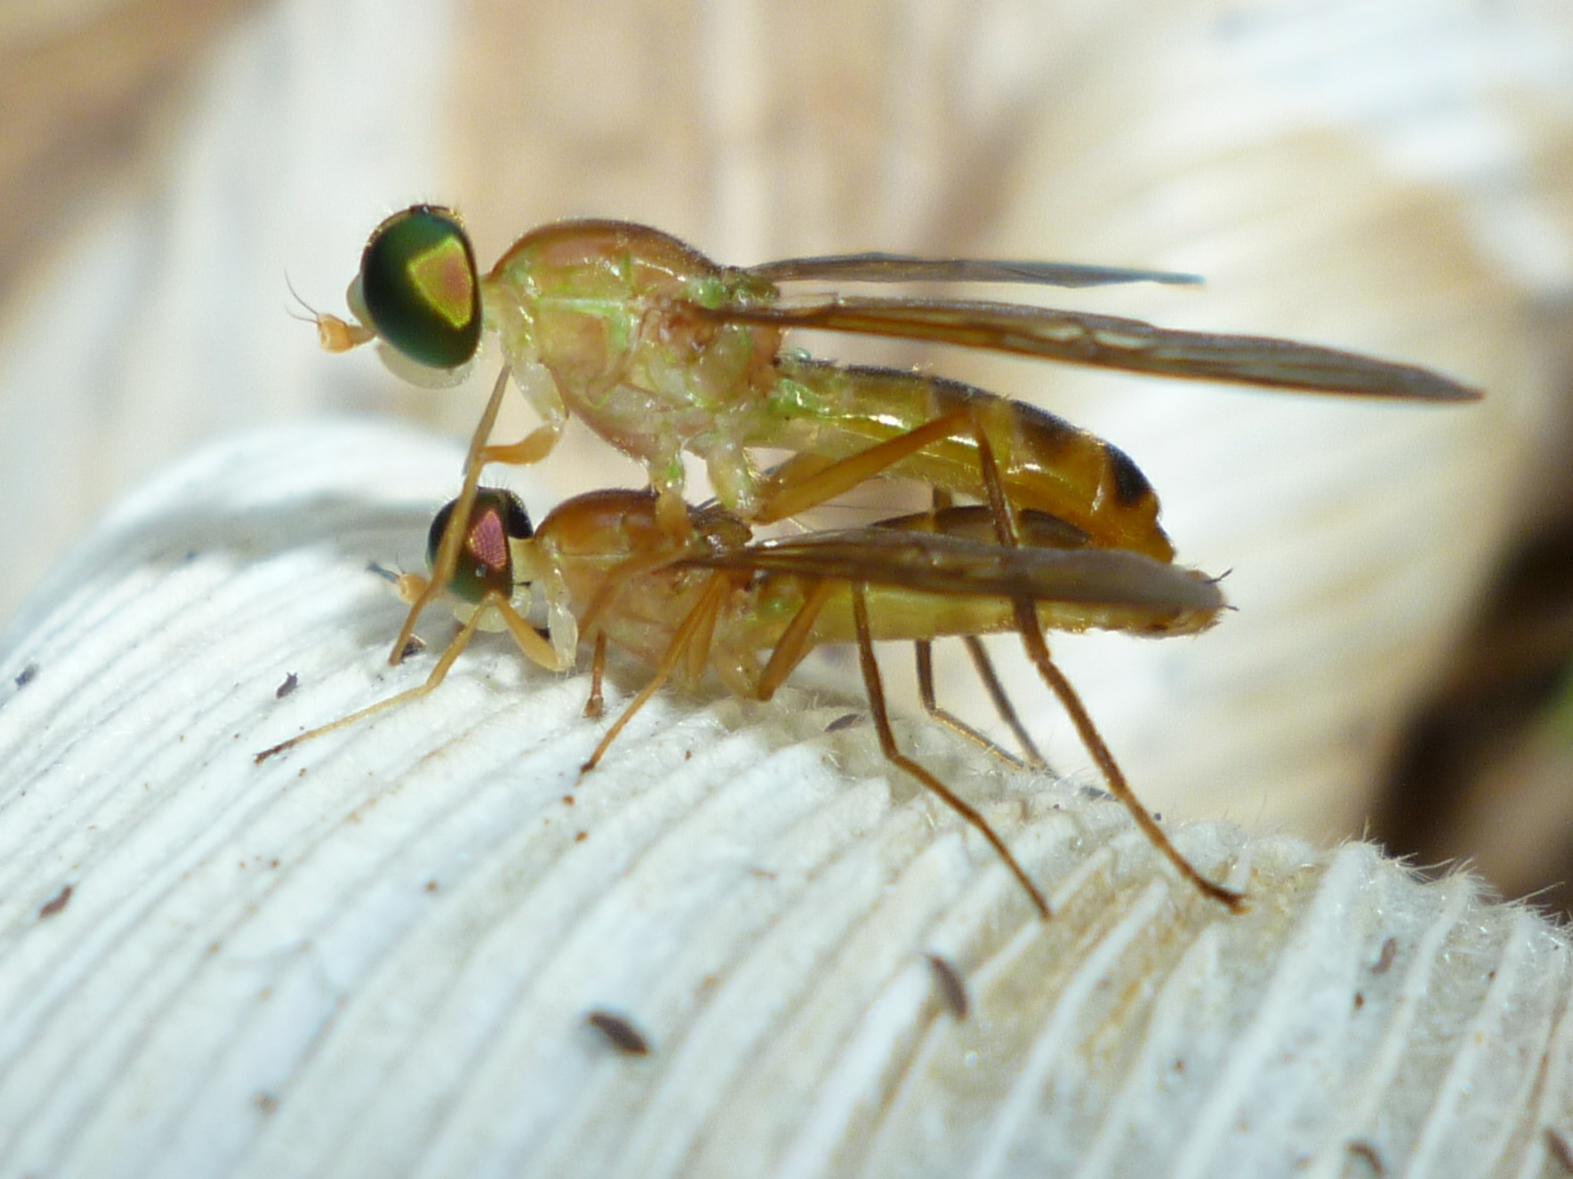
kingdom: Animalia
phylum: Arthropoda
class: Insecta
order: Diptera
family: Stratiomyidae
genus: Ptecticus
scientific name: Ptecticus trivittatus
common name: Compost fly
